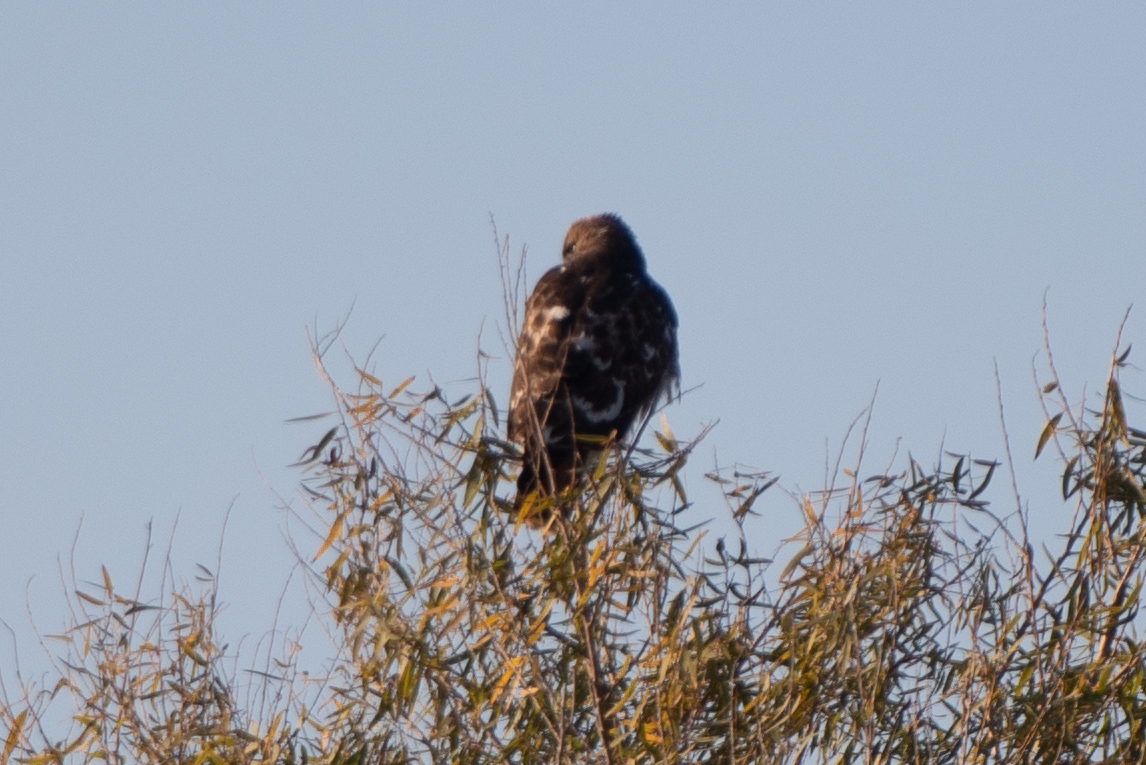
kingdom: Animalia
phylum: Chordata
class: Aves
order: Accipitriformes
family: Accipitridae
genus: Buteo
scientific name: Buteo jamaicensis
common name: Red-tailed hawk
